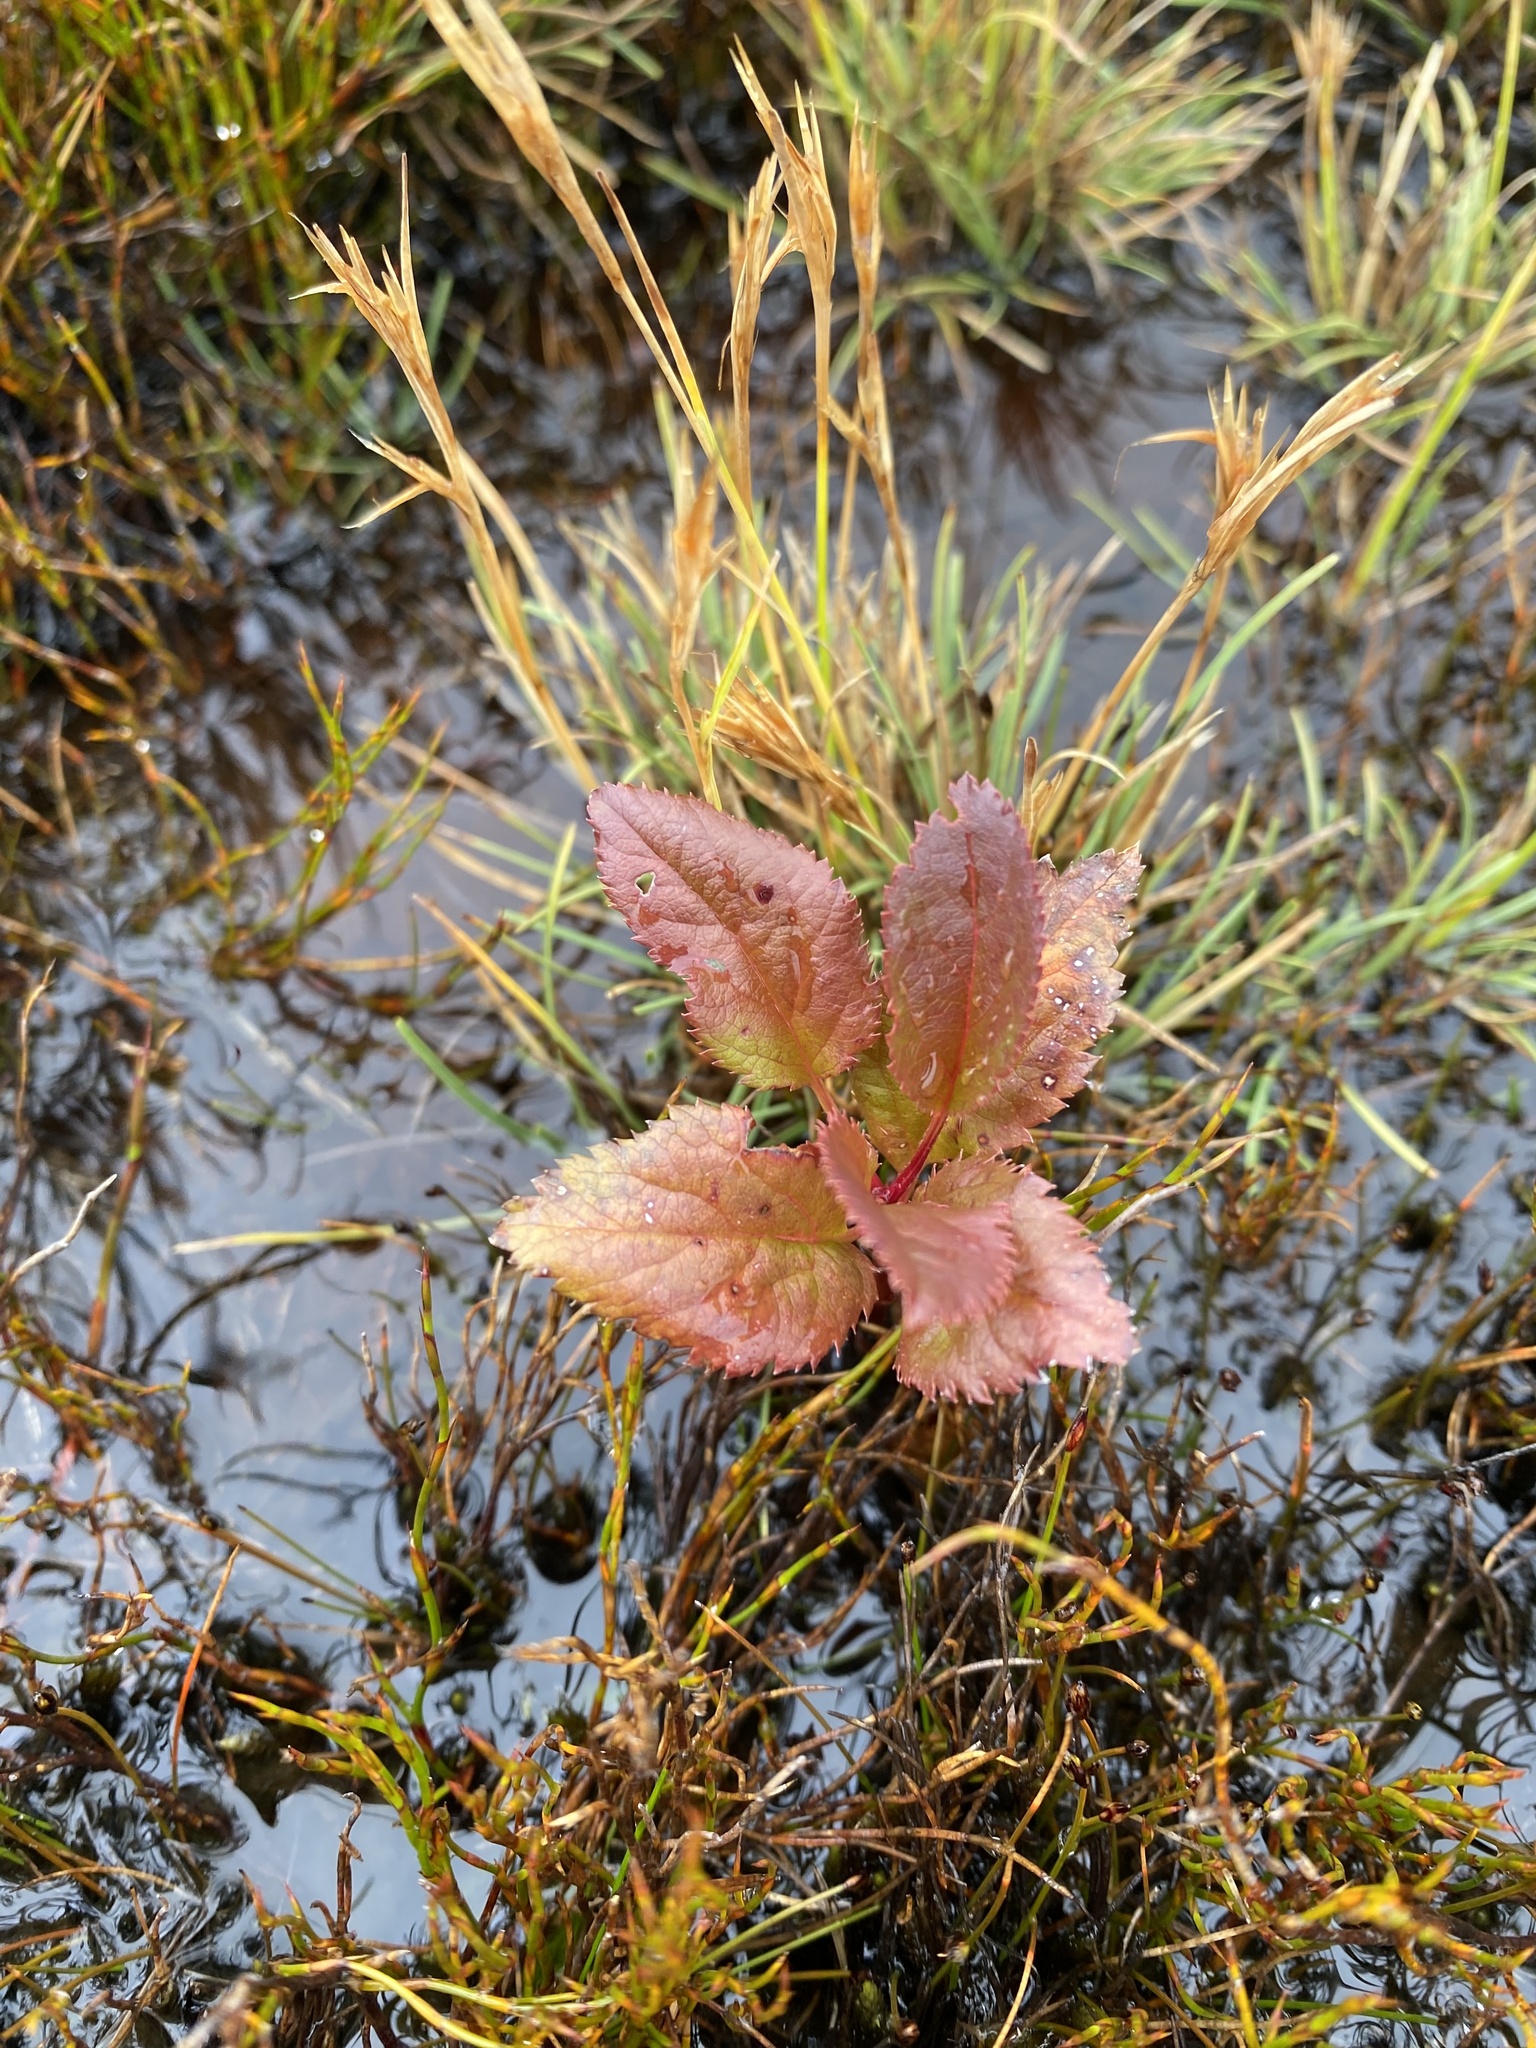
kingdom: Plantae
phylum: Tracheophyta
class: Magnoliopsida
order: Oxalidales
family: Elaeocarpaceae
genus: Aristotelia
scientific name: Aristotelia serrata
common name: New zealand wineberry
